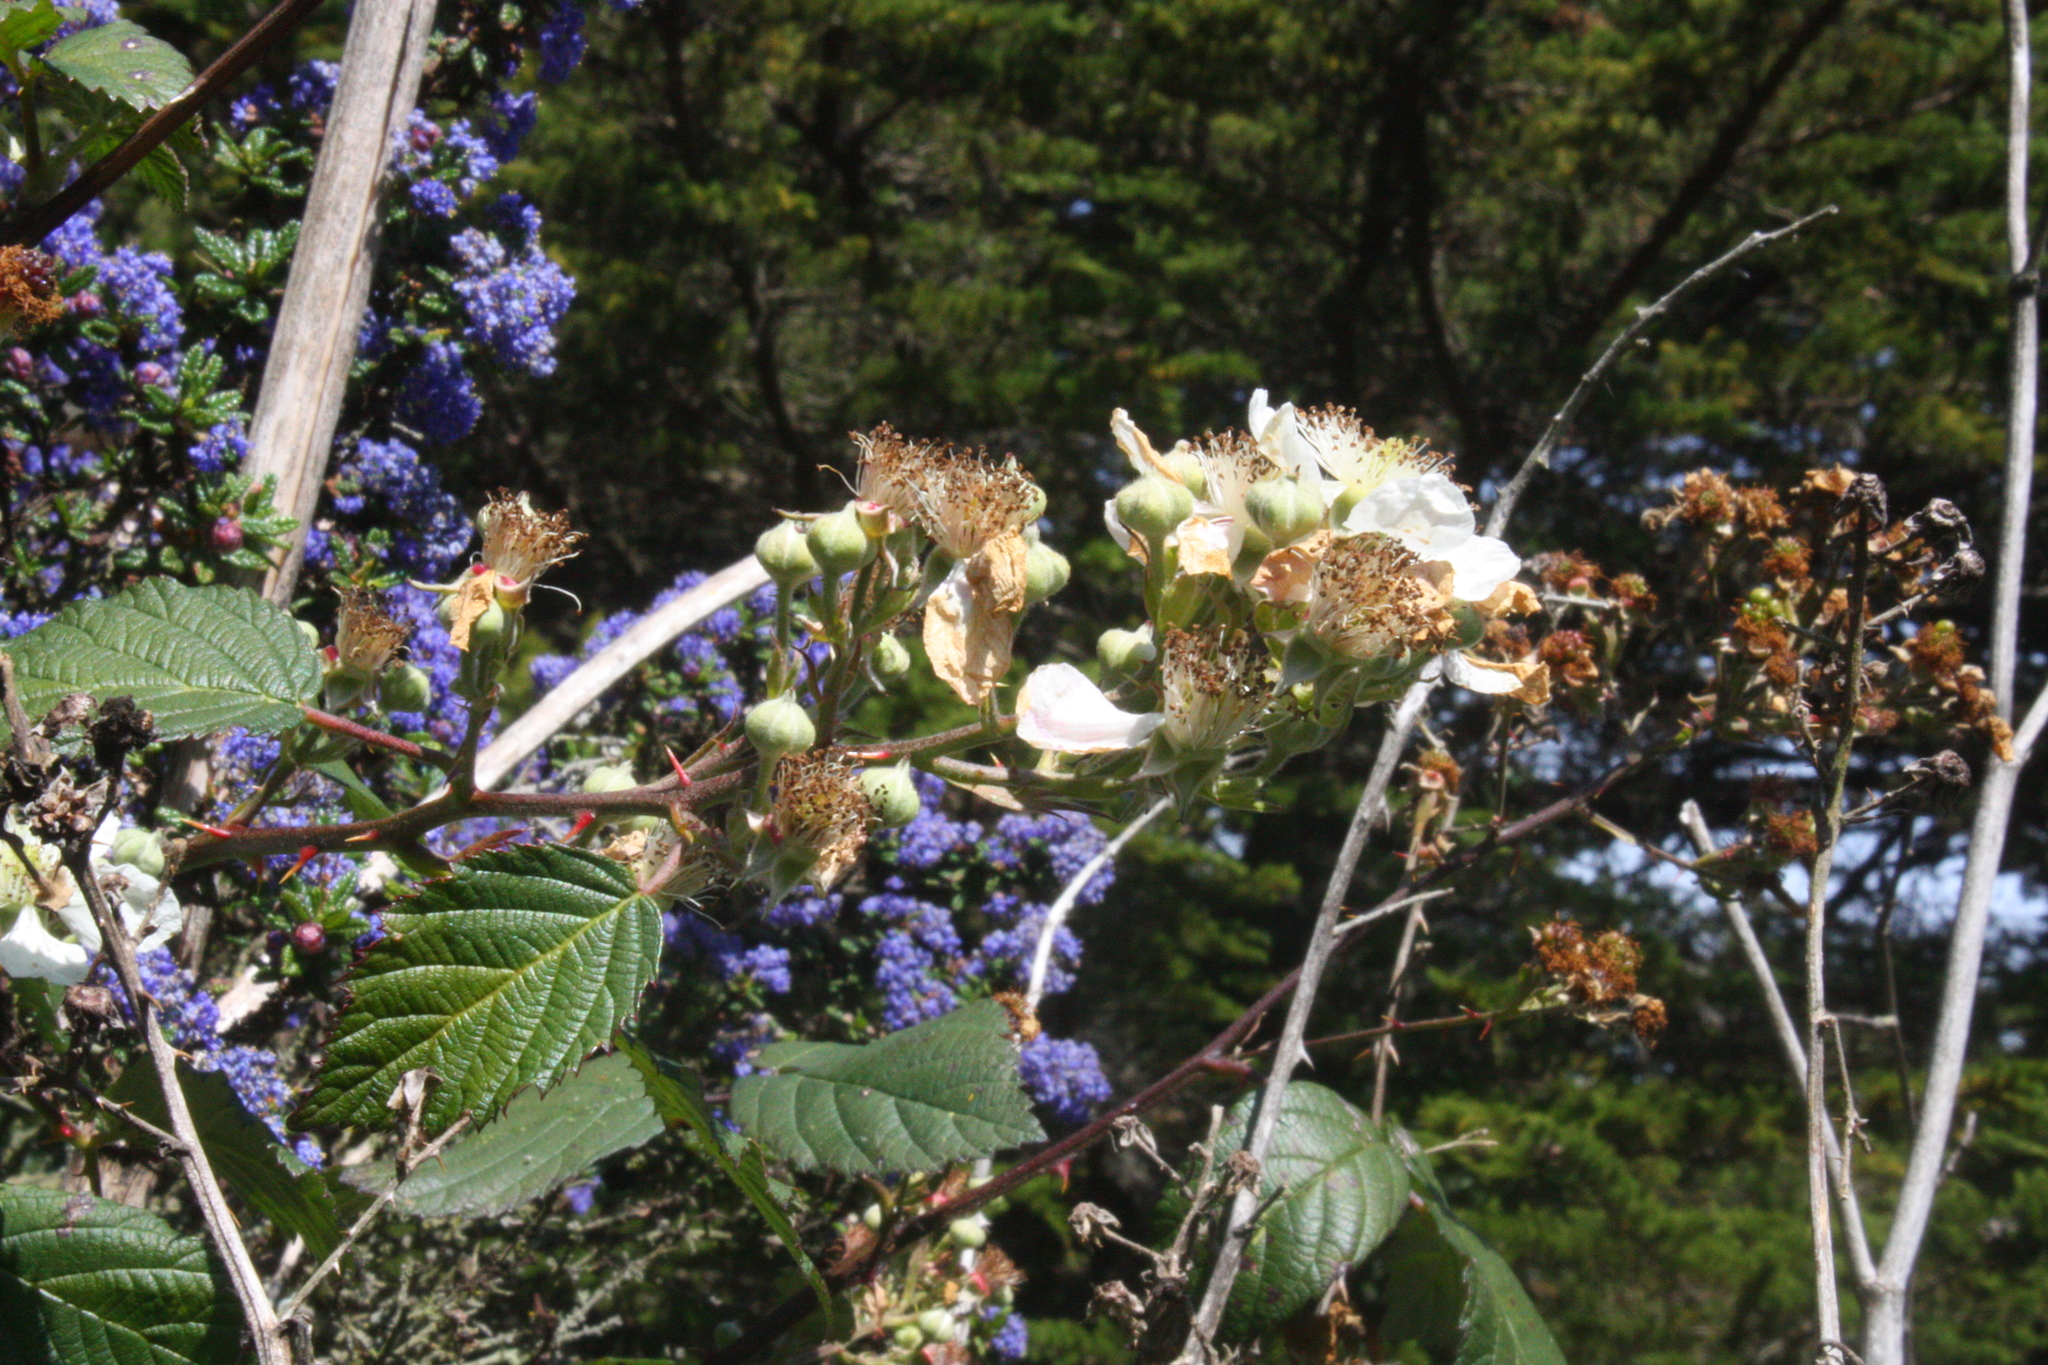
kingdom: Plantae
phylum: Tracheophyta
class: Magnoliopsida
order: Rosales
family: Rosaceae
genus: Rubus
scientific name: Rubus armeniacus
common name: Himalayan blackberry
